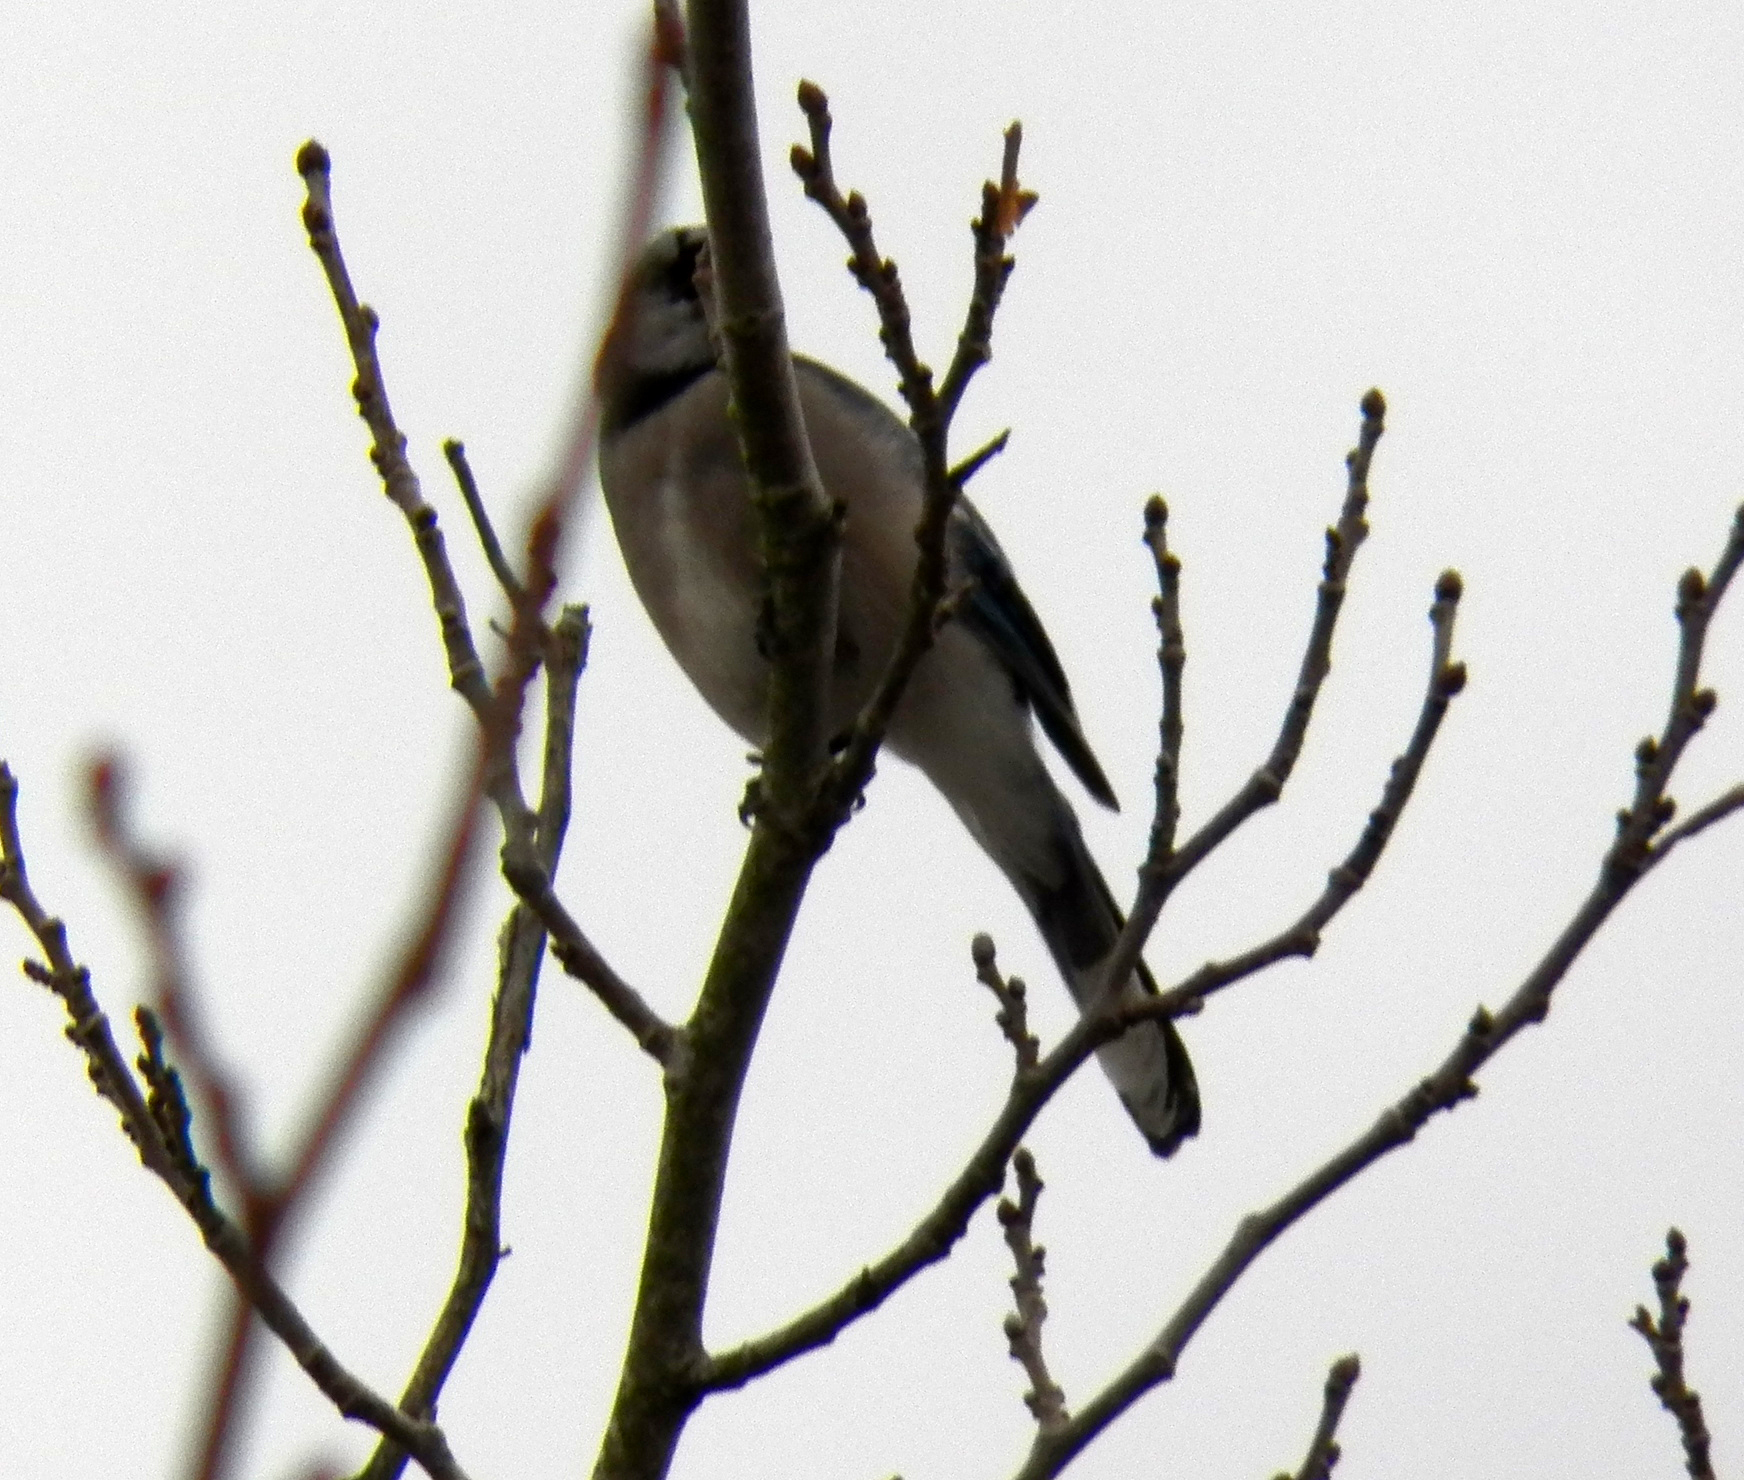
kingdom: Animalia
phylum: Chordata
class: Aves
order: Passeriformes
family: Corvidae
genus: Cyanocitta
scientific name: Cyanocitta cristata
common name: Blue jay
